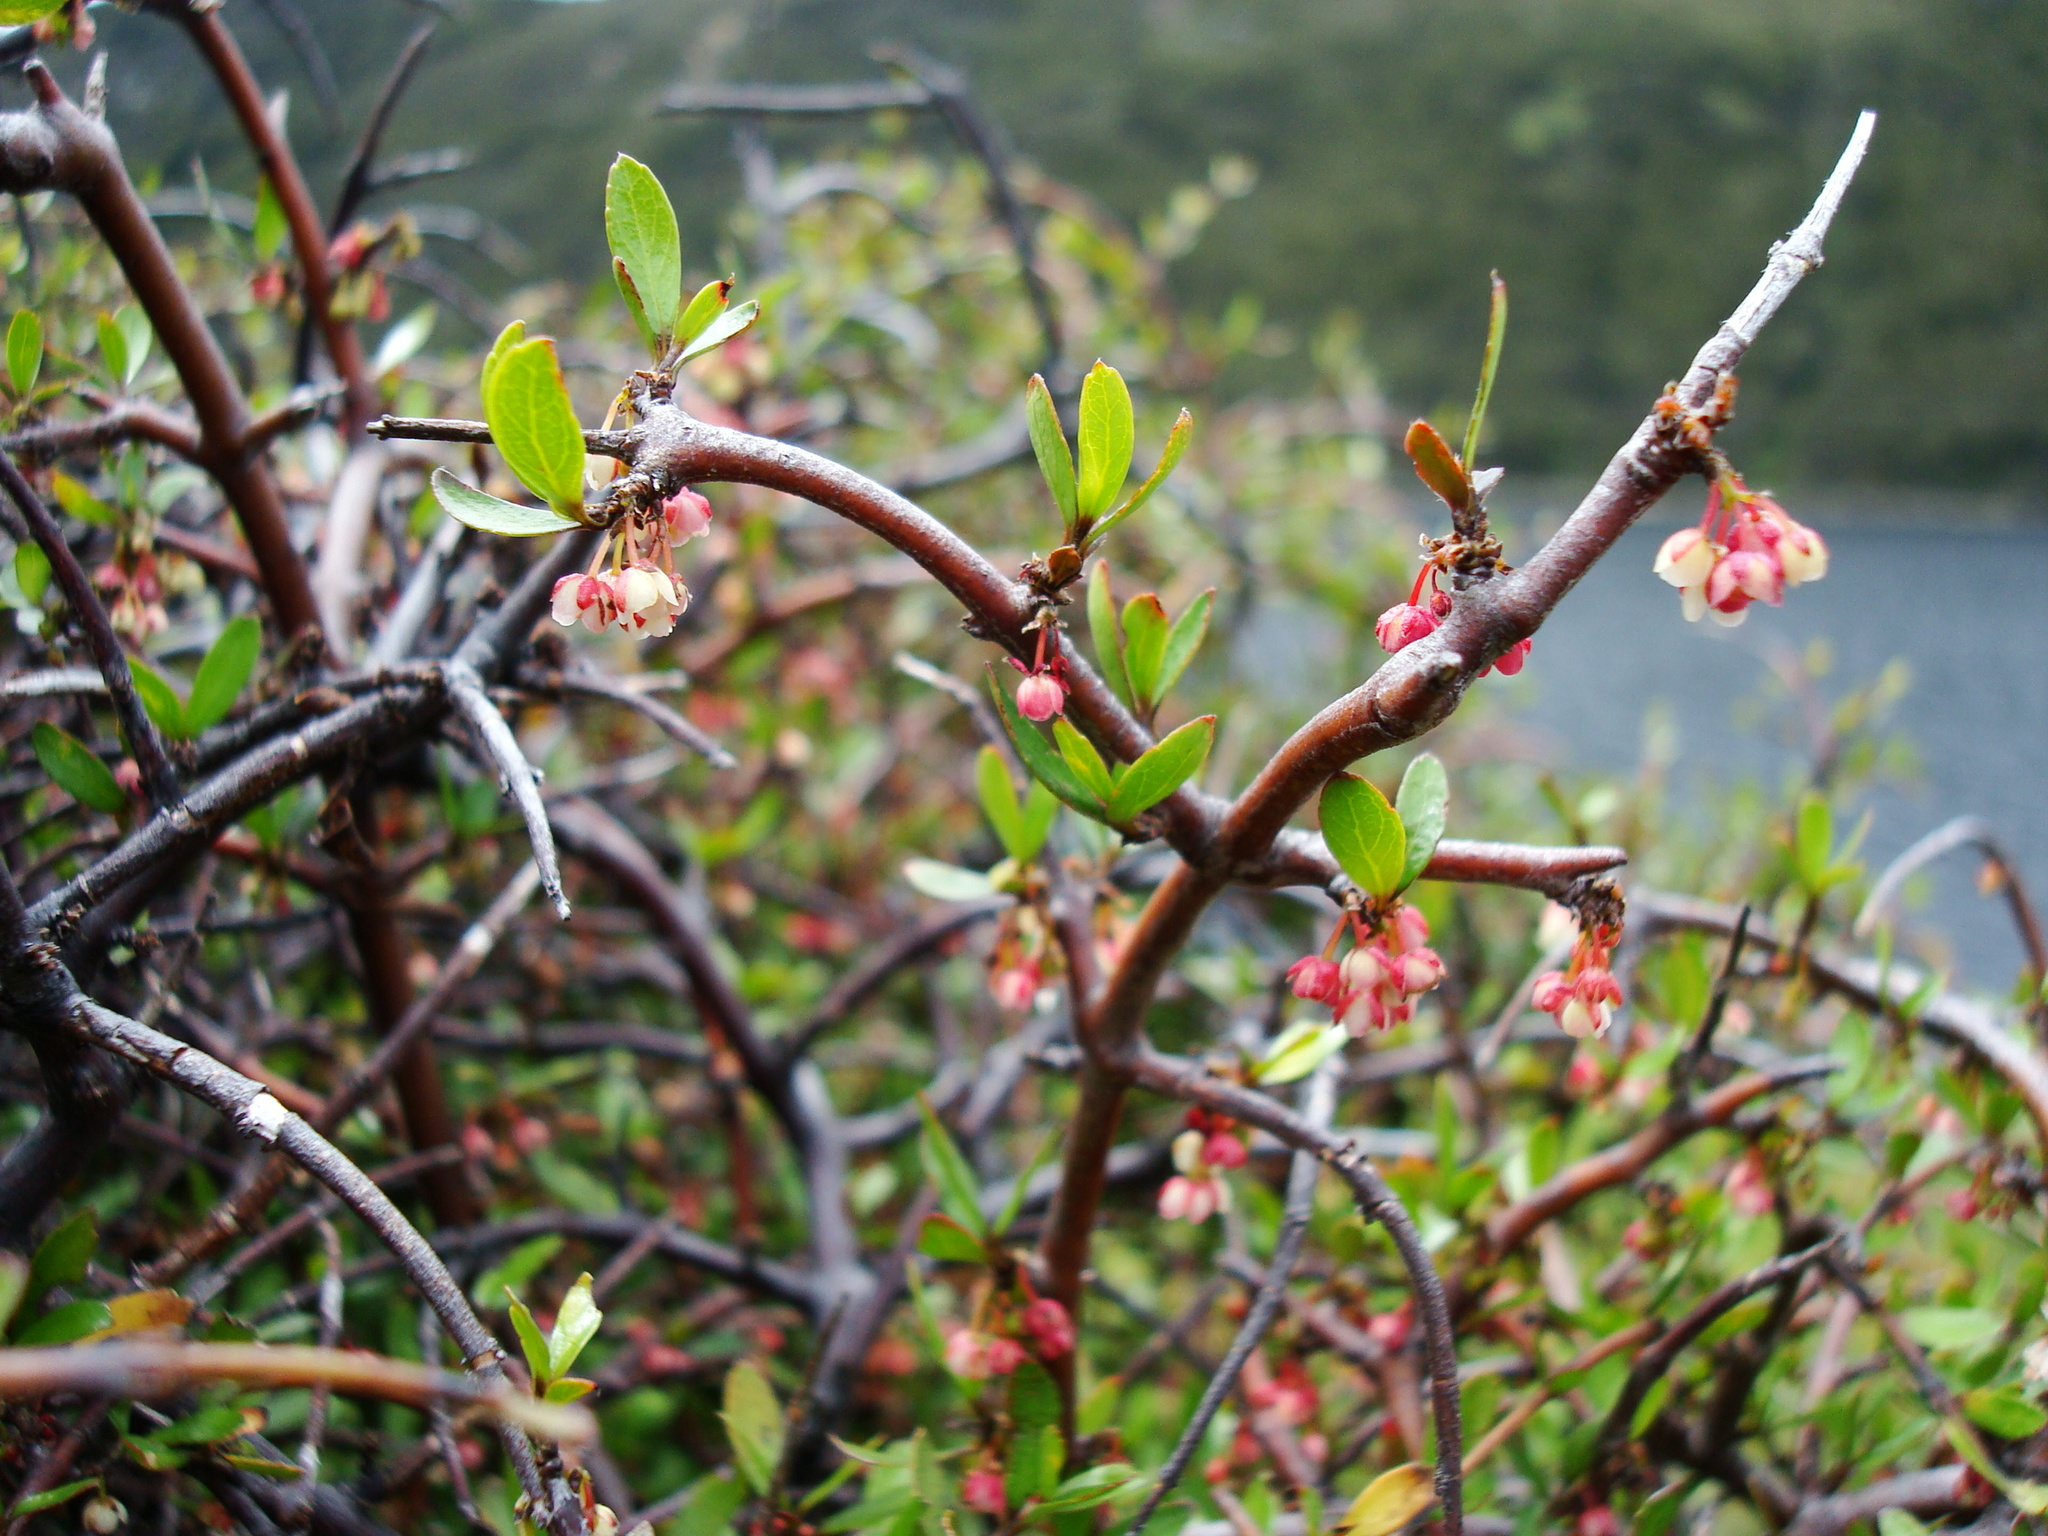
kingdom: Plantae
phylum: Tracheophyta
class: Magnoliopsida
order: Oxalidales
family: Elaeocarpaceae
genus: Aristotelia
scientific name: Aristotelia fruticosa
